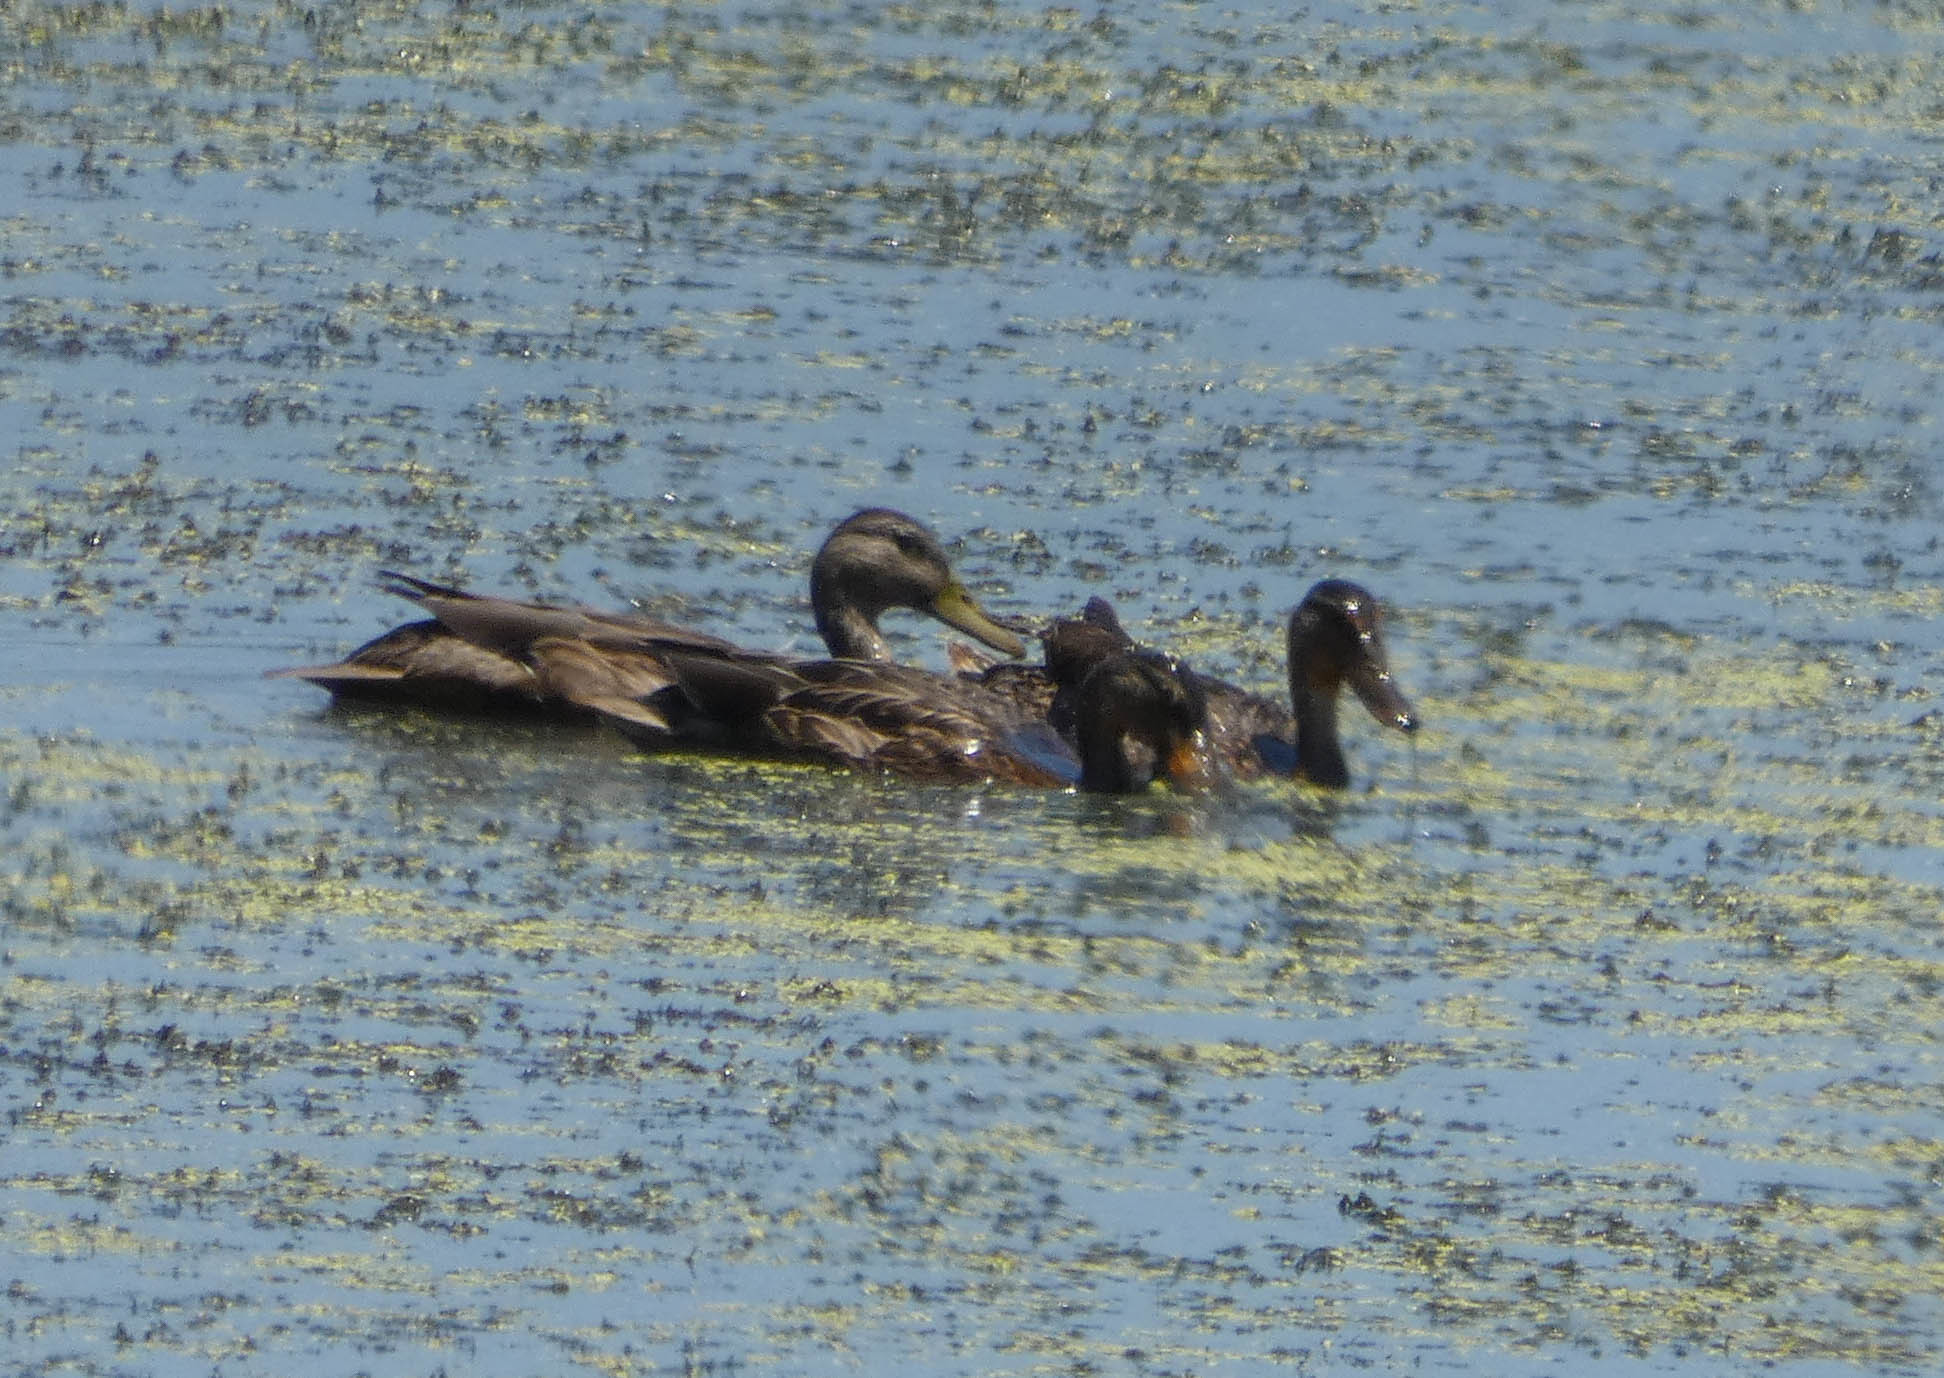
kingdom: Animalia
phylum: Chordata
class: Aves
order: Anseriformes
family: Anatidae
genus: Anas
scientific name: Anas platyrhynchos
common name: Mallard
